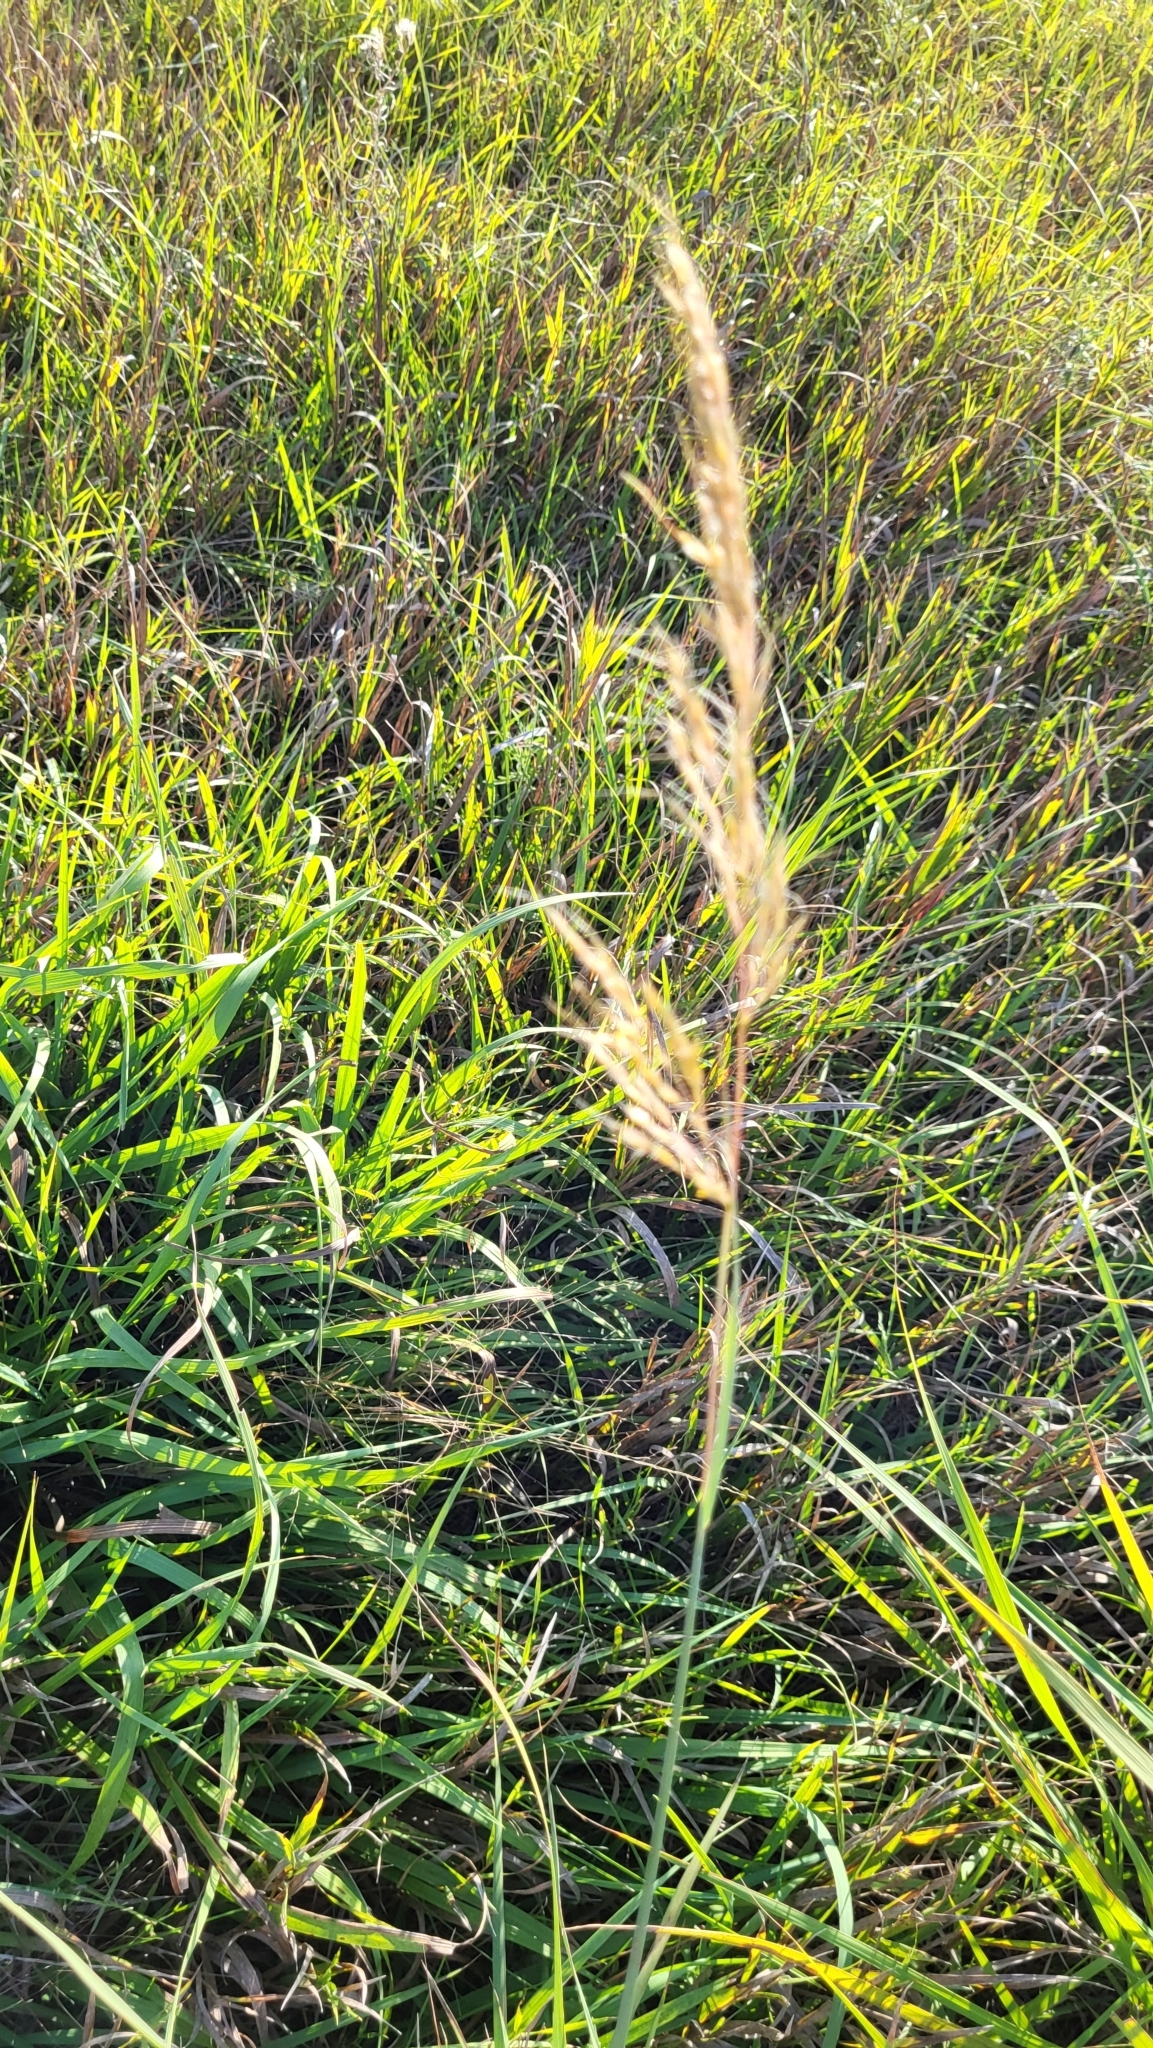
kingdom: Plantae
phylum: Tracheophyta
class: Liliopsida
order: Poales
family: Poaceae
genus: Sorghastrum
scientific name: Sorghastrum nutans
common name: Indian grass
